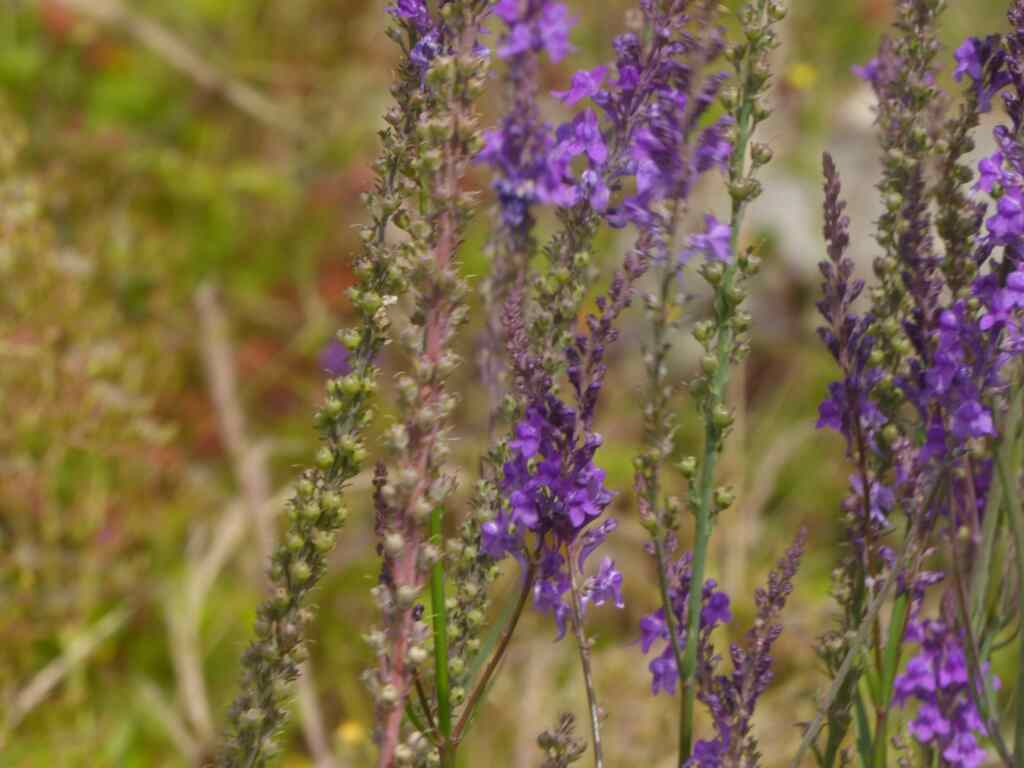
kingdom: Plantae
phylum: Tracheophyta
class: Magnoliopsida
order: Lamiales
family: Plantaginaceae
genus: Linaria
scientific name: Linaria purpurea
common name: Purple toadflax
